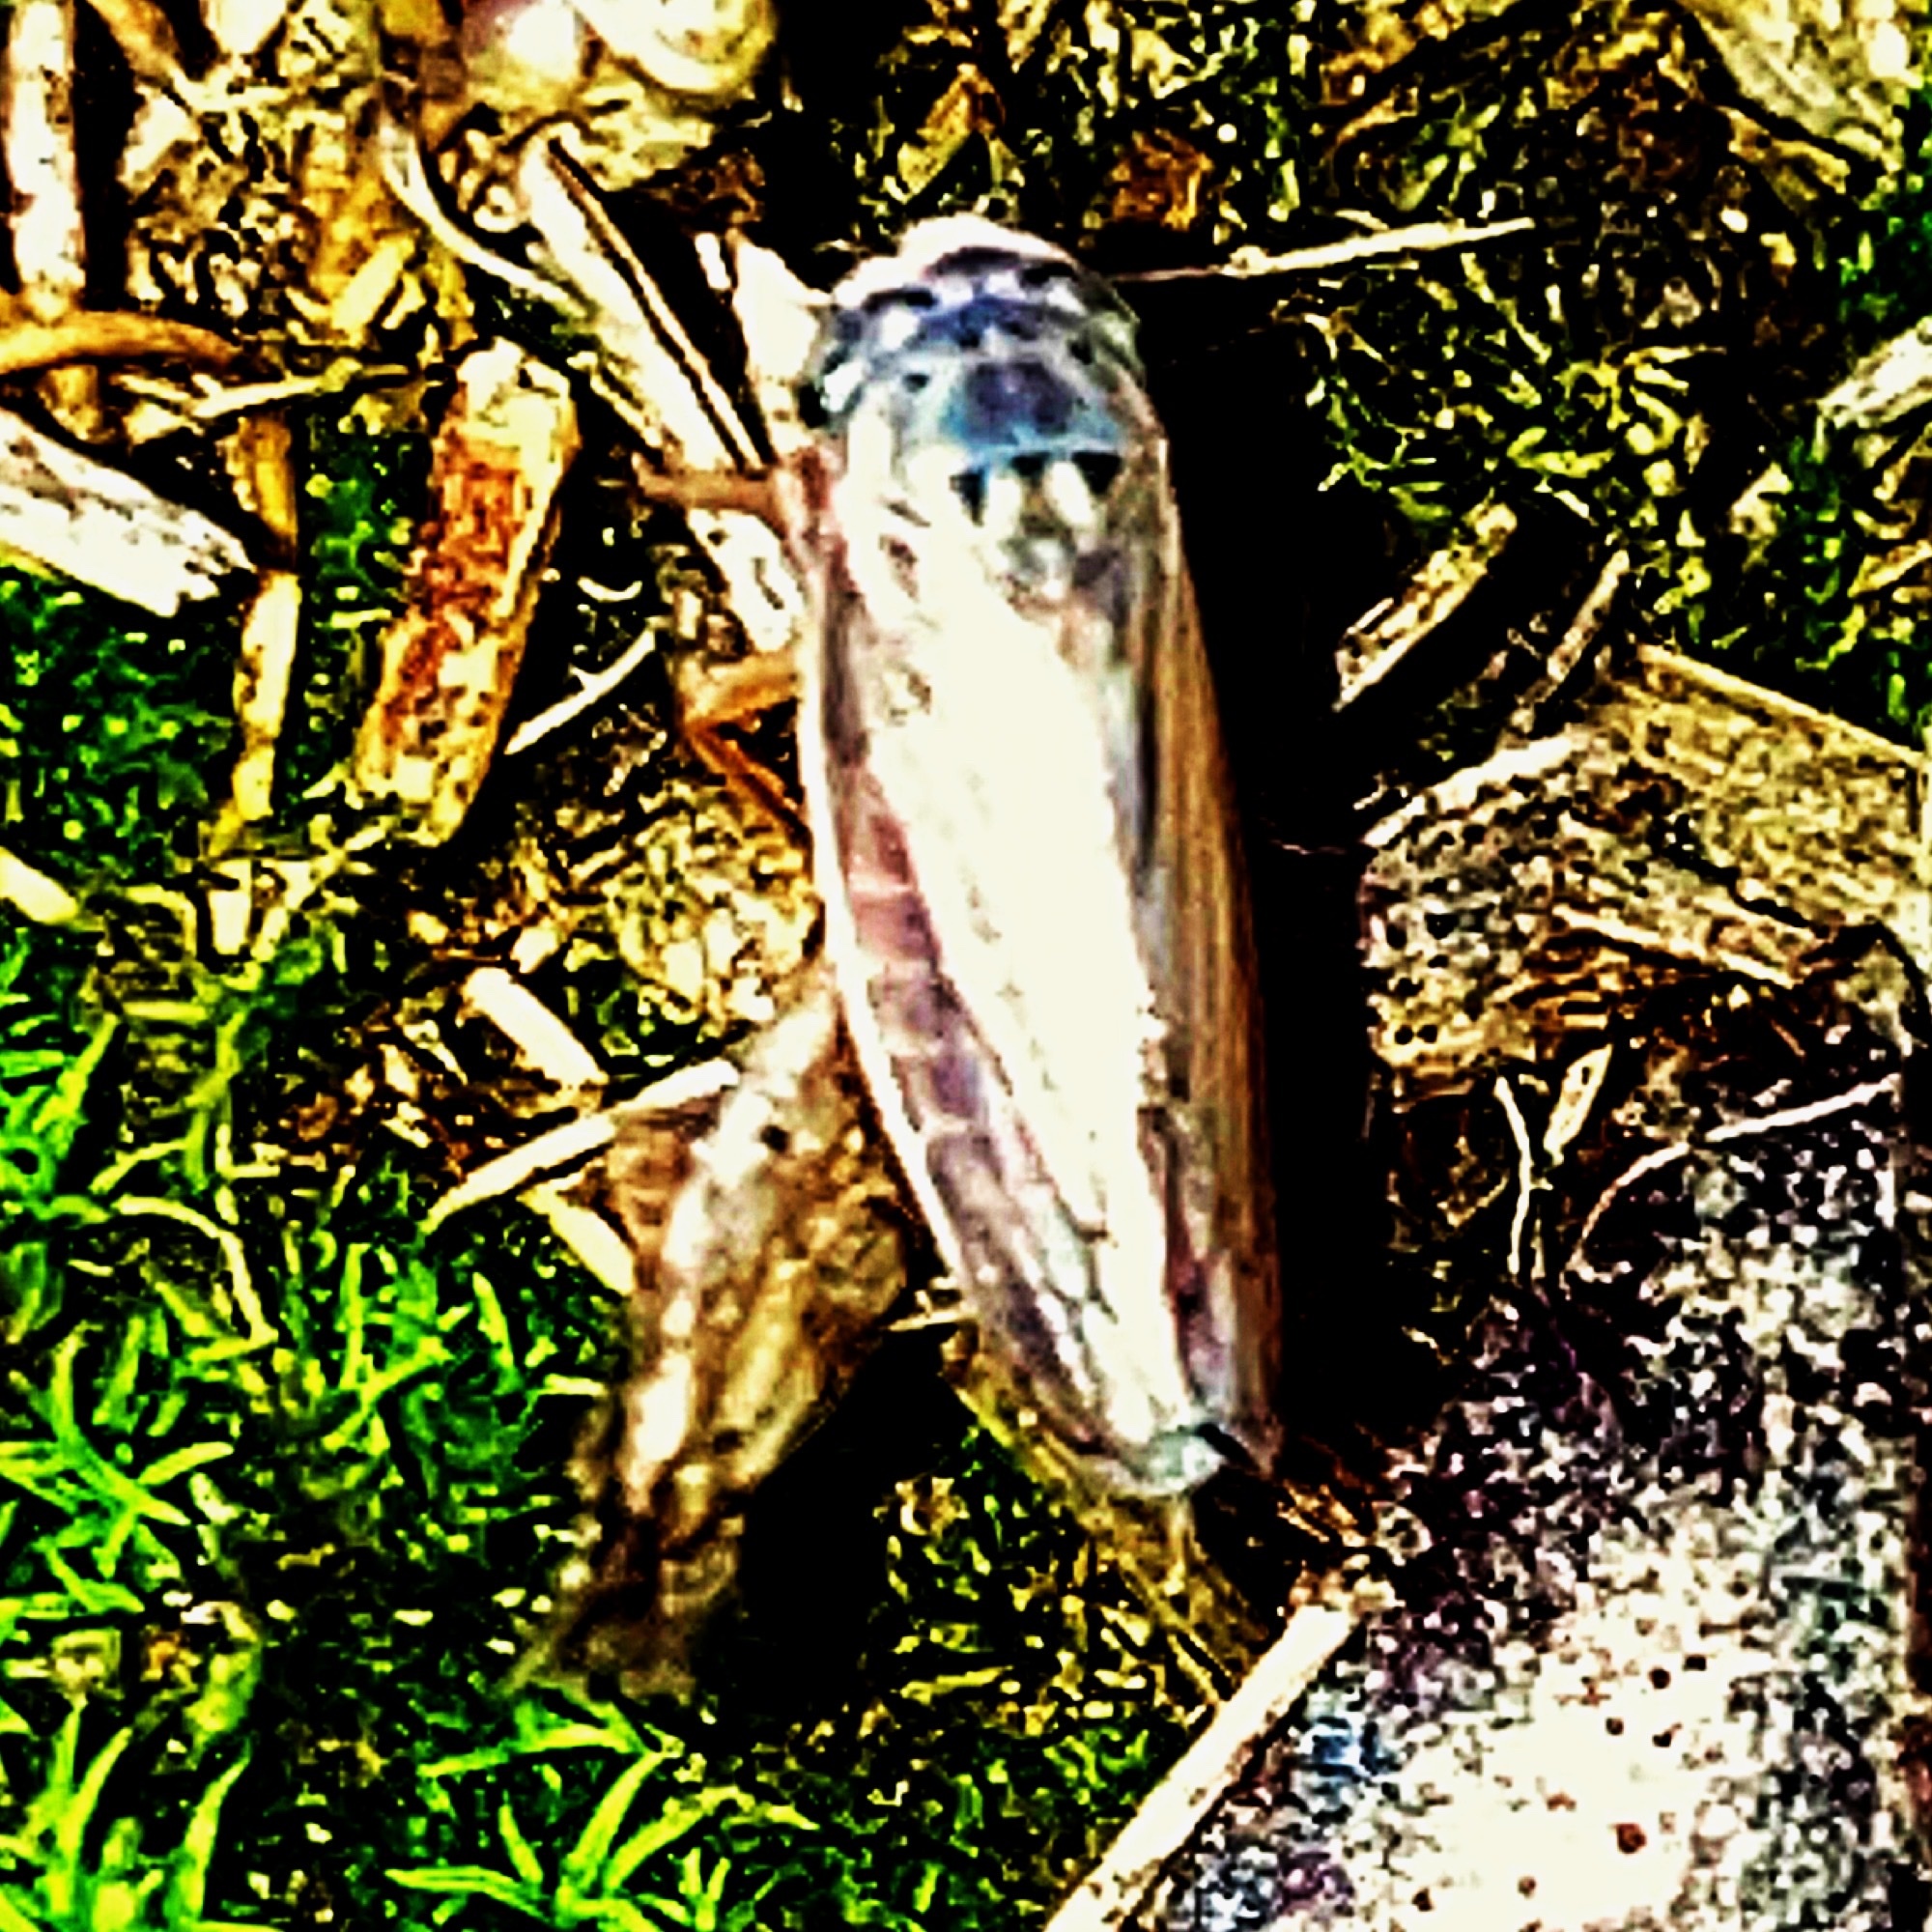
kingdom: Animalia
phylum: Arthropoda
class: Insecta
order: Hemiptera
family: Cicadellidae
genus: Exitianus
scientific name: Exitianus exitiosus
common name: Gray lawn leafhopper
